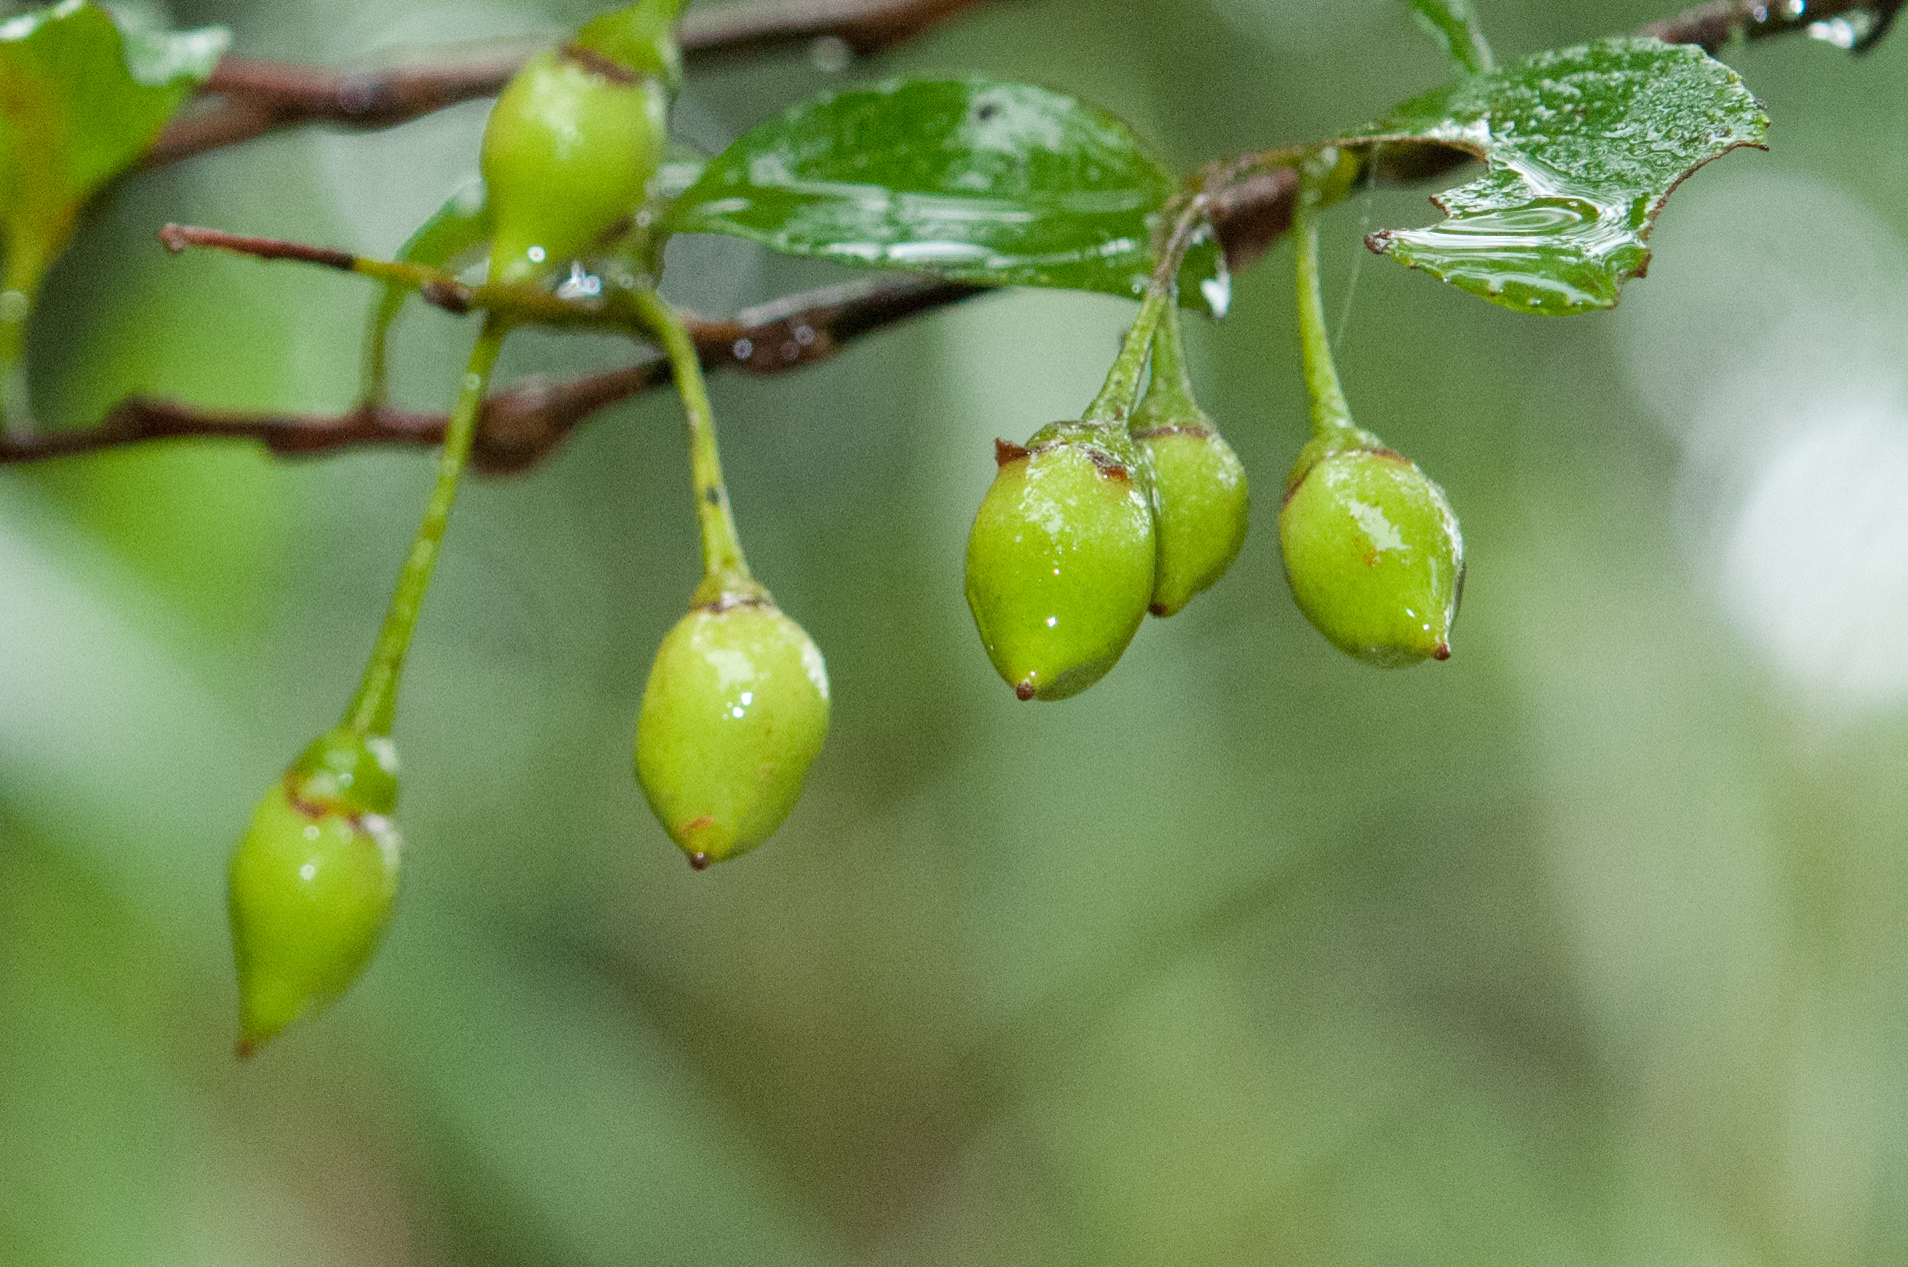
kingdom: Plantae
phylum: Tracheophyta
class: Magnoliopsida
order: Ericales
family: Styracaceae
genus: Styrax
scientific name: Styrax formosanus
